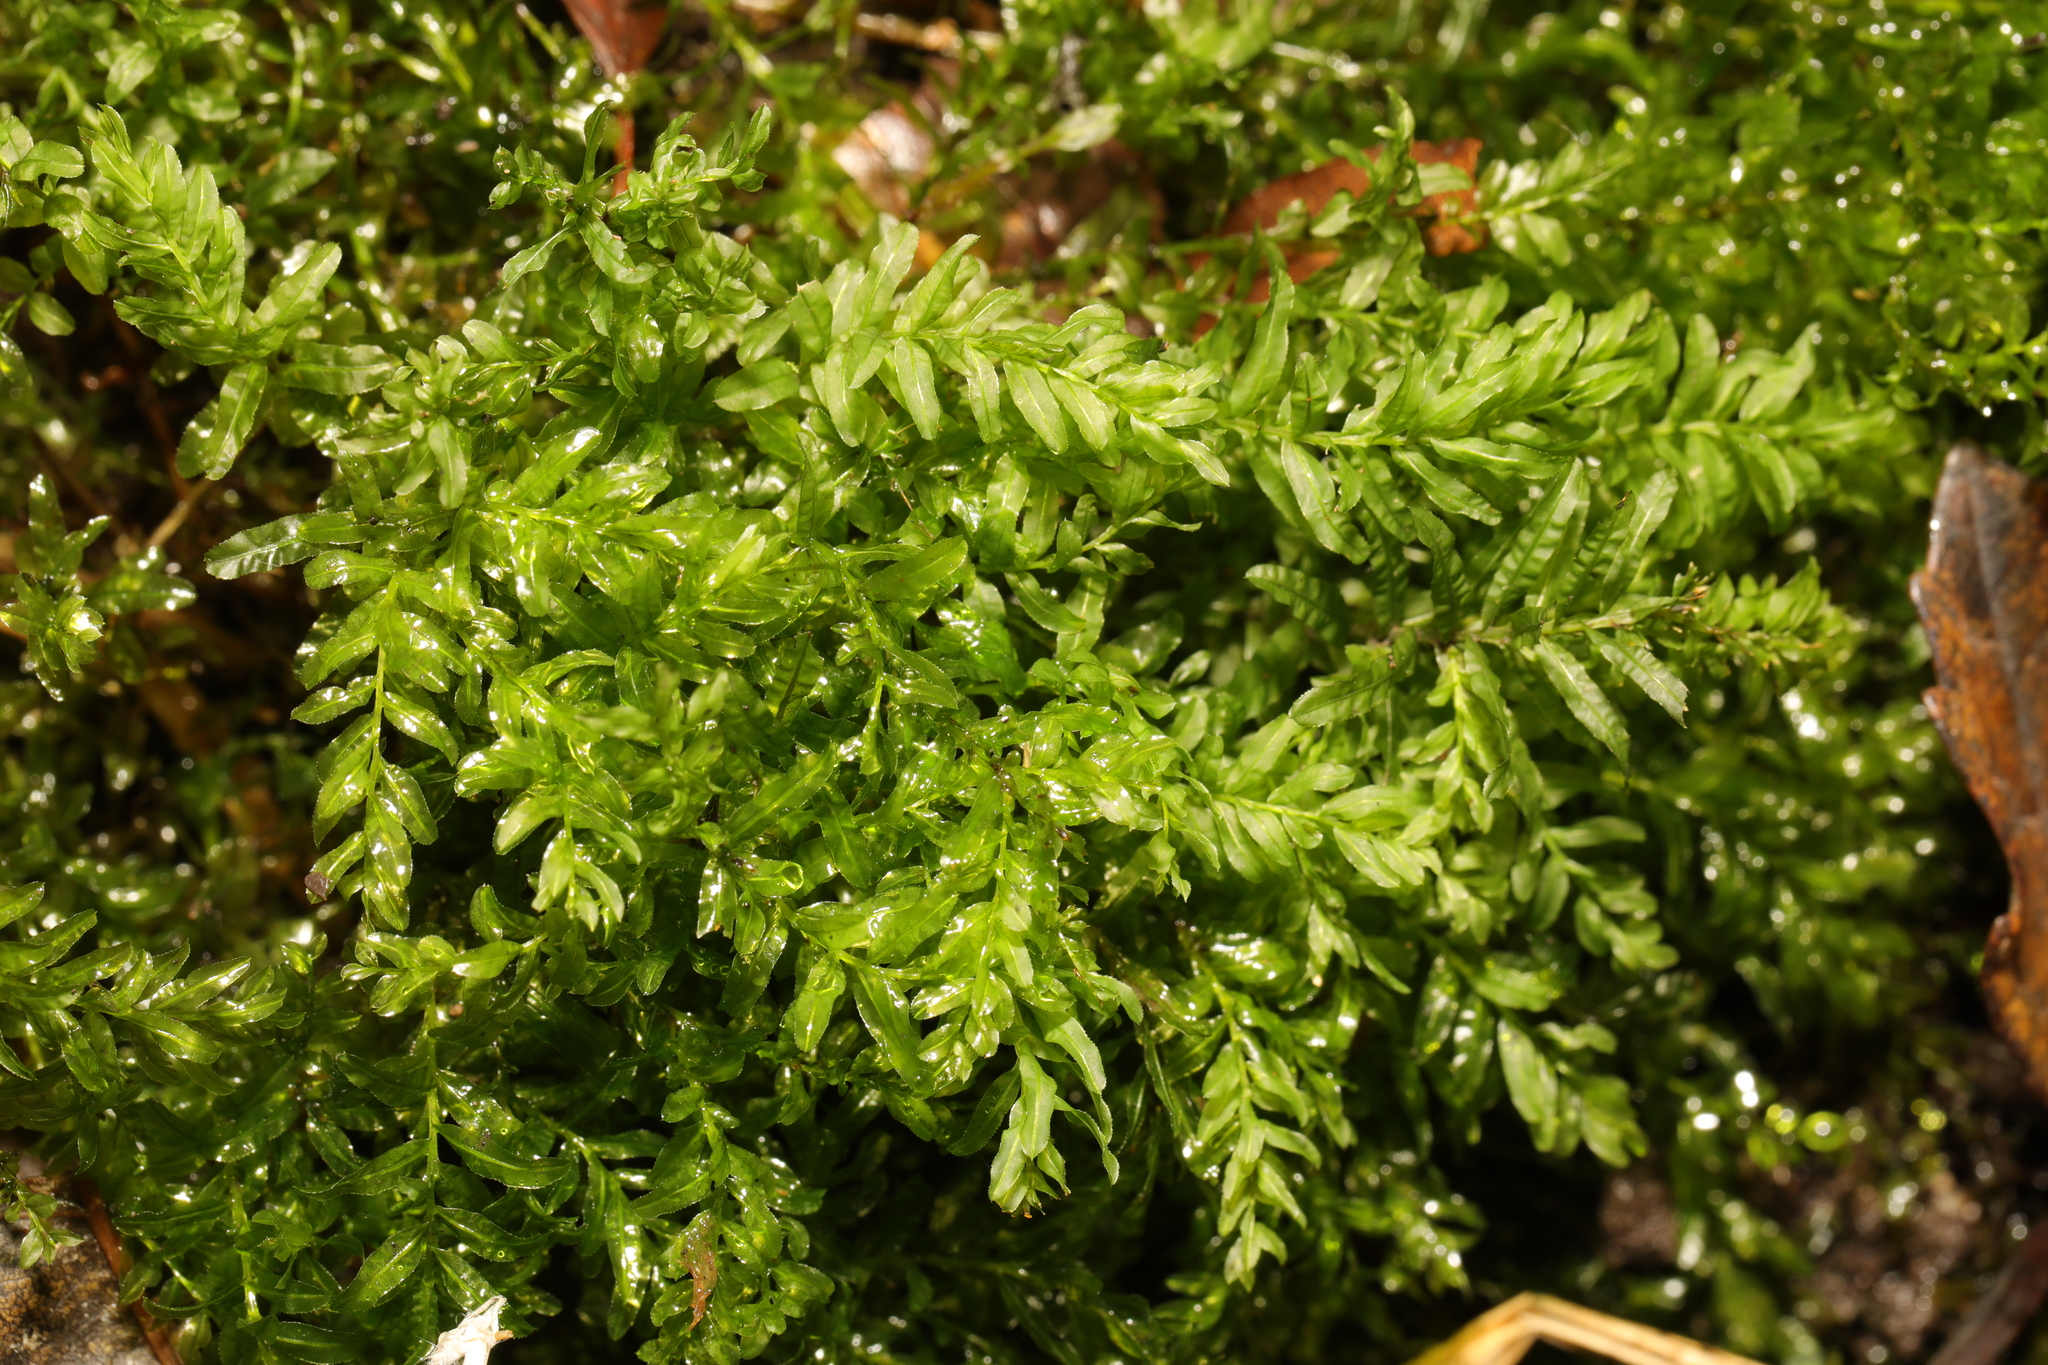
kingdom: Plantae
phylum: Bryophyta
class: Bryopsida
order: Bryales
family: Mniaceae
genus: Plagiomnium
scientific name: Plagiomnium undulatum
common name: Hart's-tongue thyme-moss
